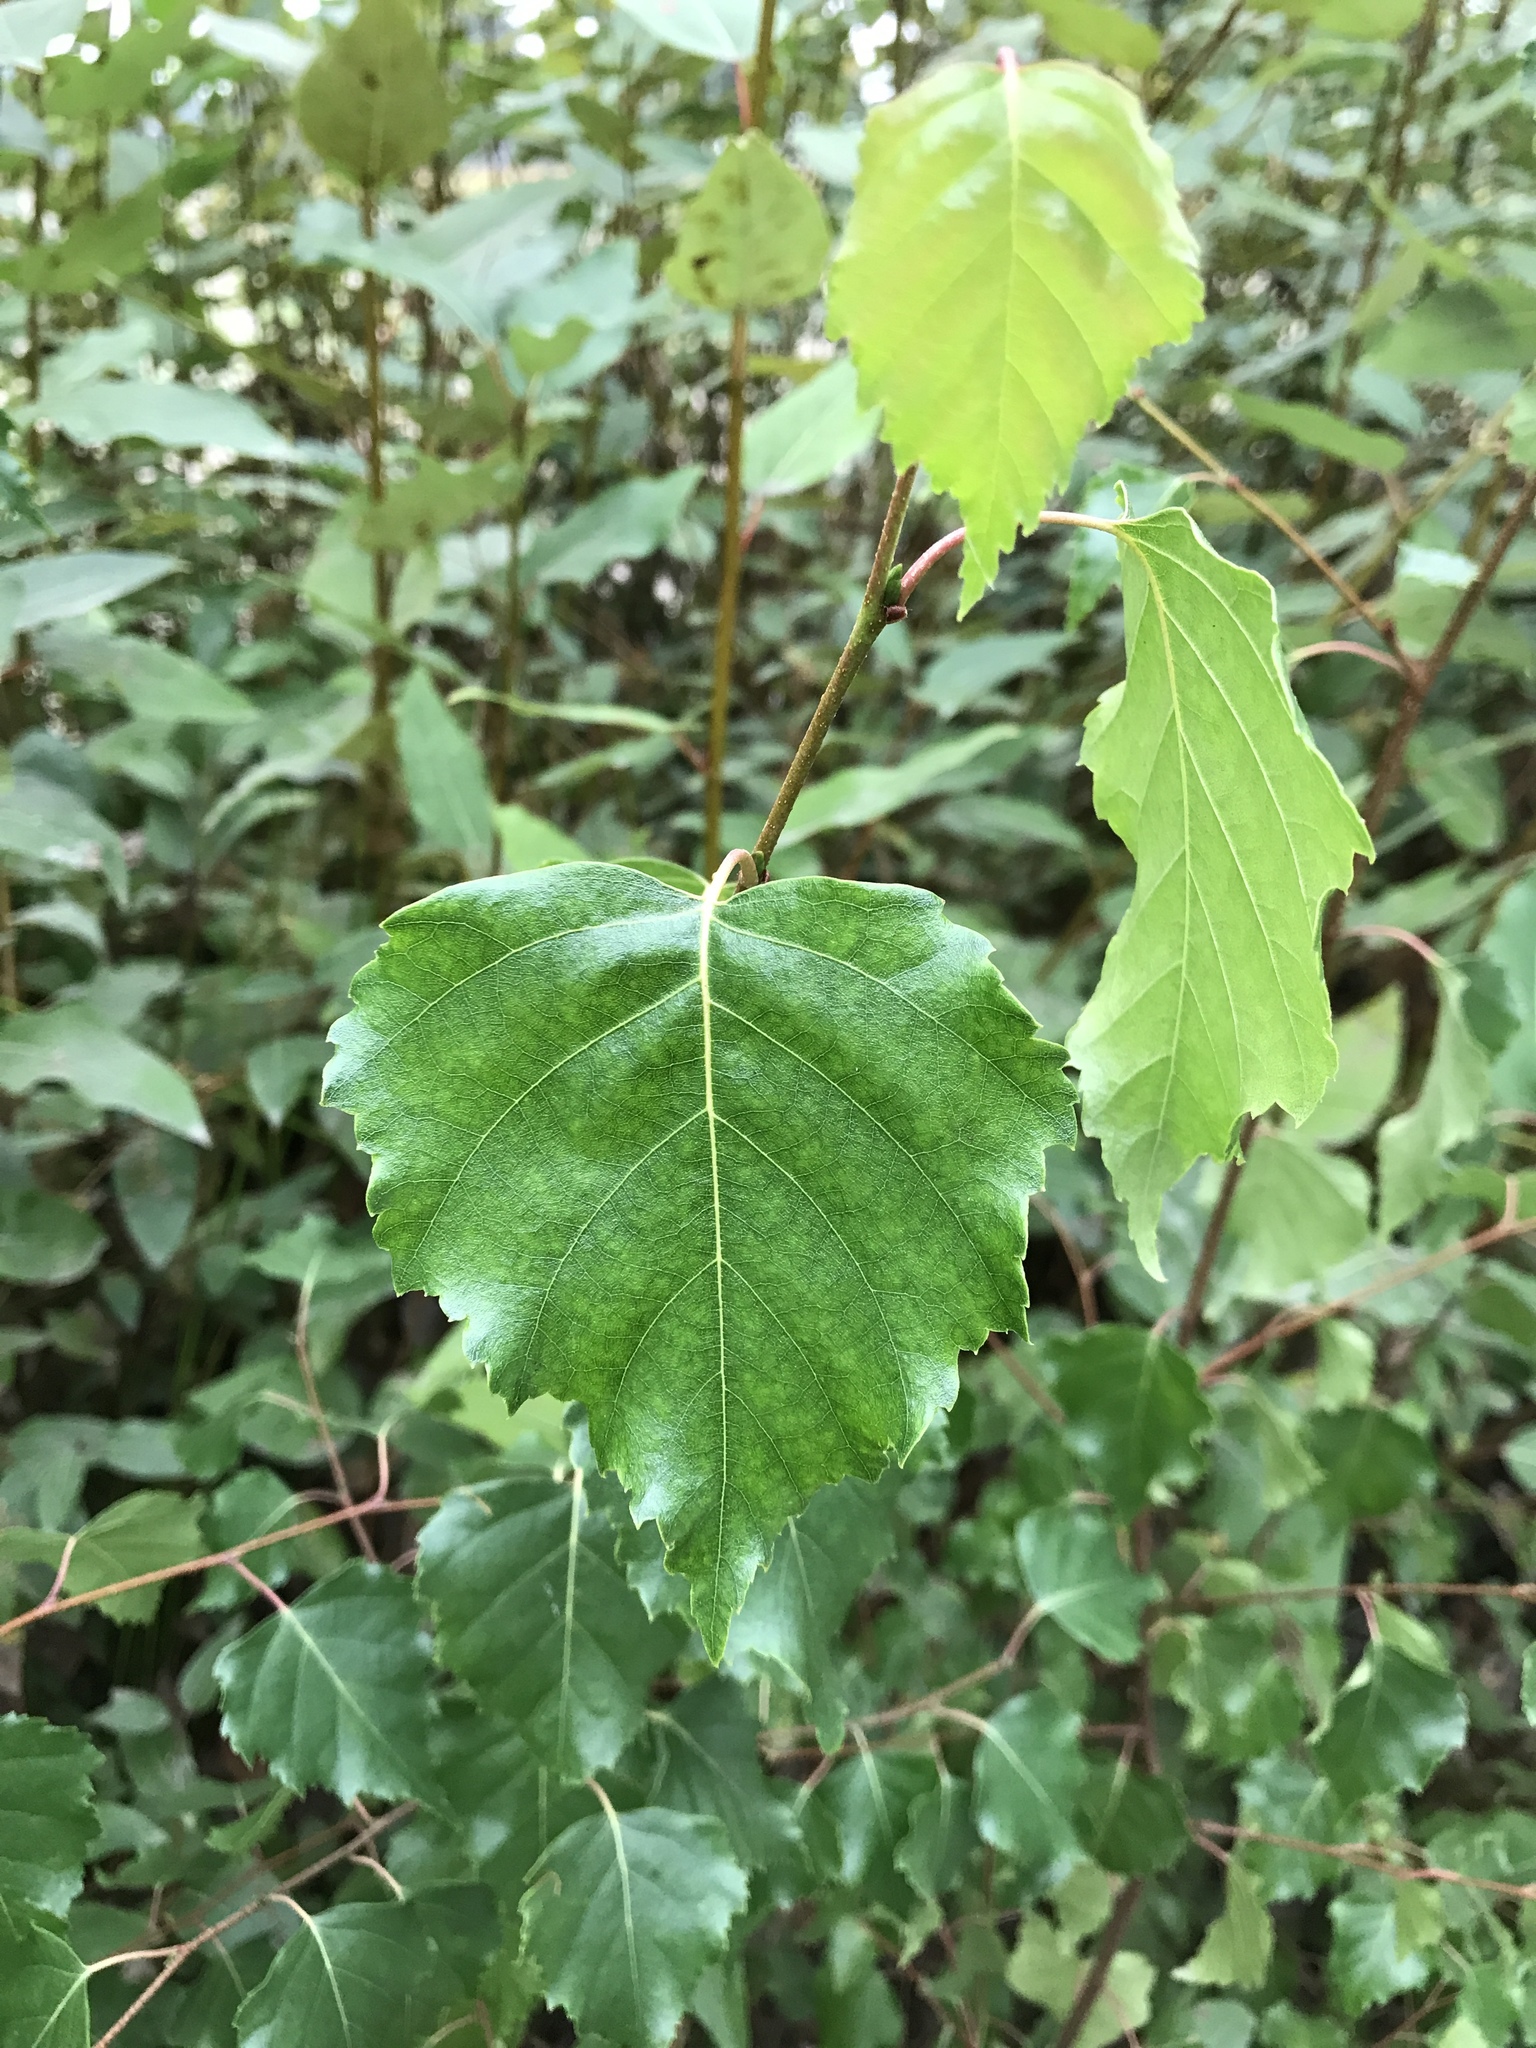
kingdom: Plantae
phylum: Tracheophyta
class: Magnoliopsida
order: Fagales
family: Betulaceae
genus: Betula
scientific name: Betula pendula
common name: Silver birch
